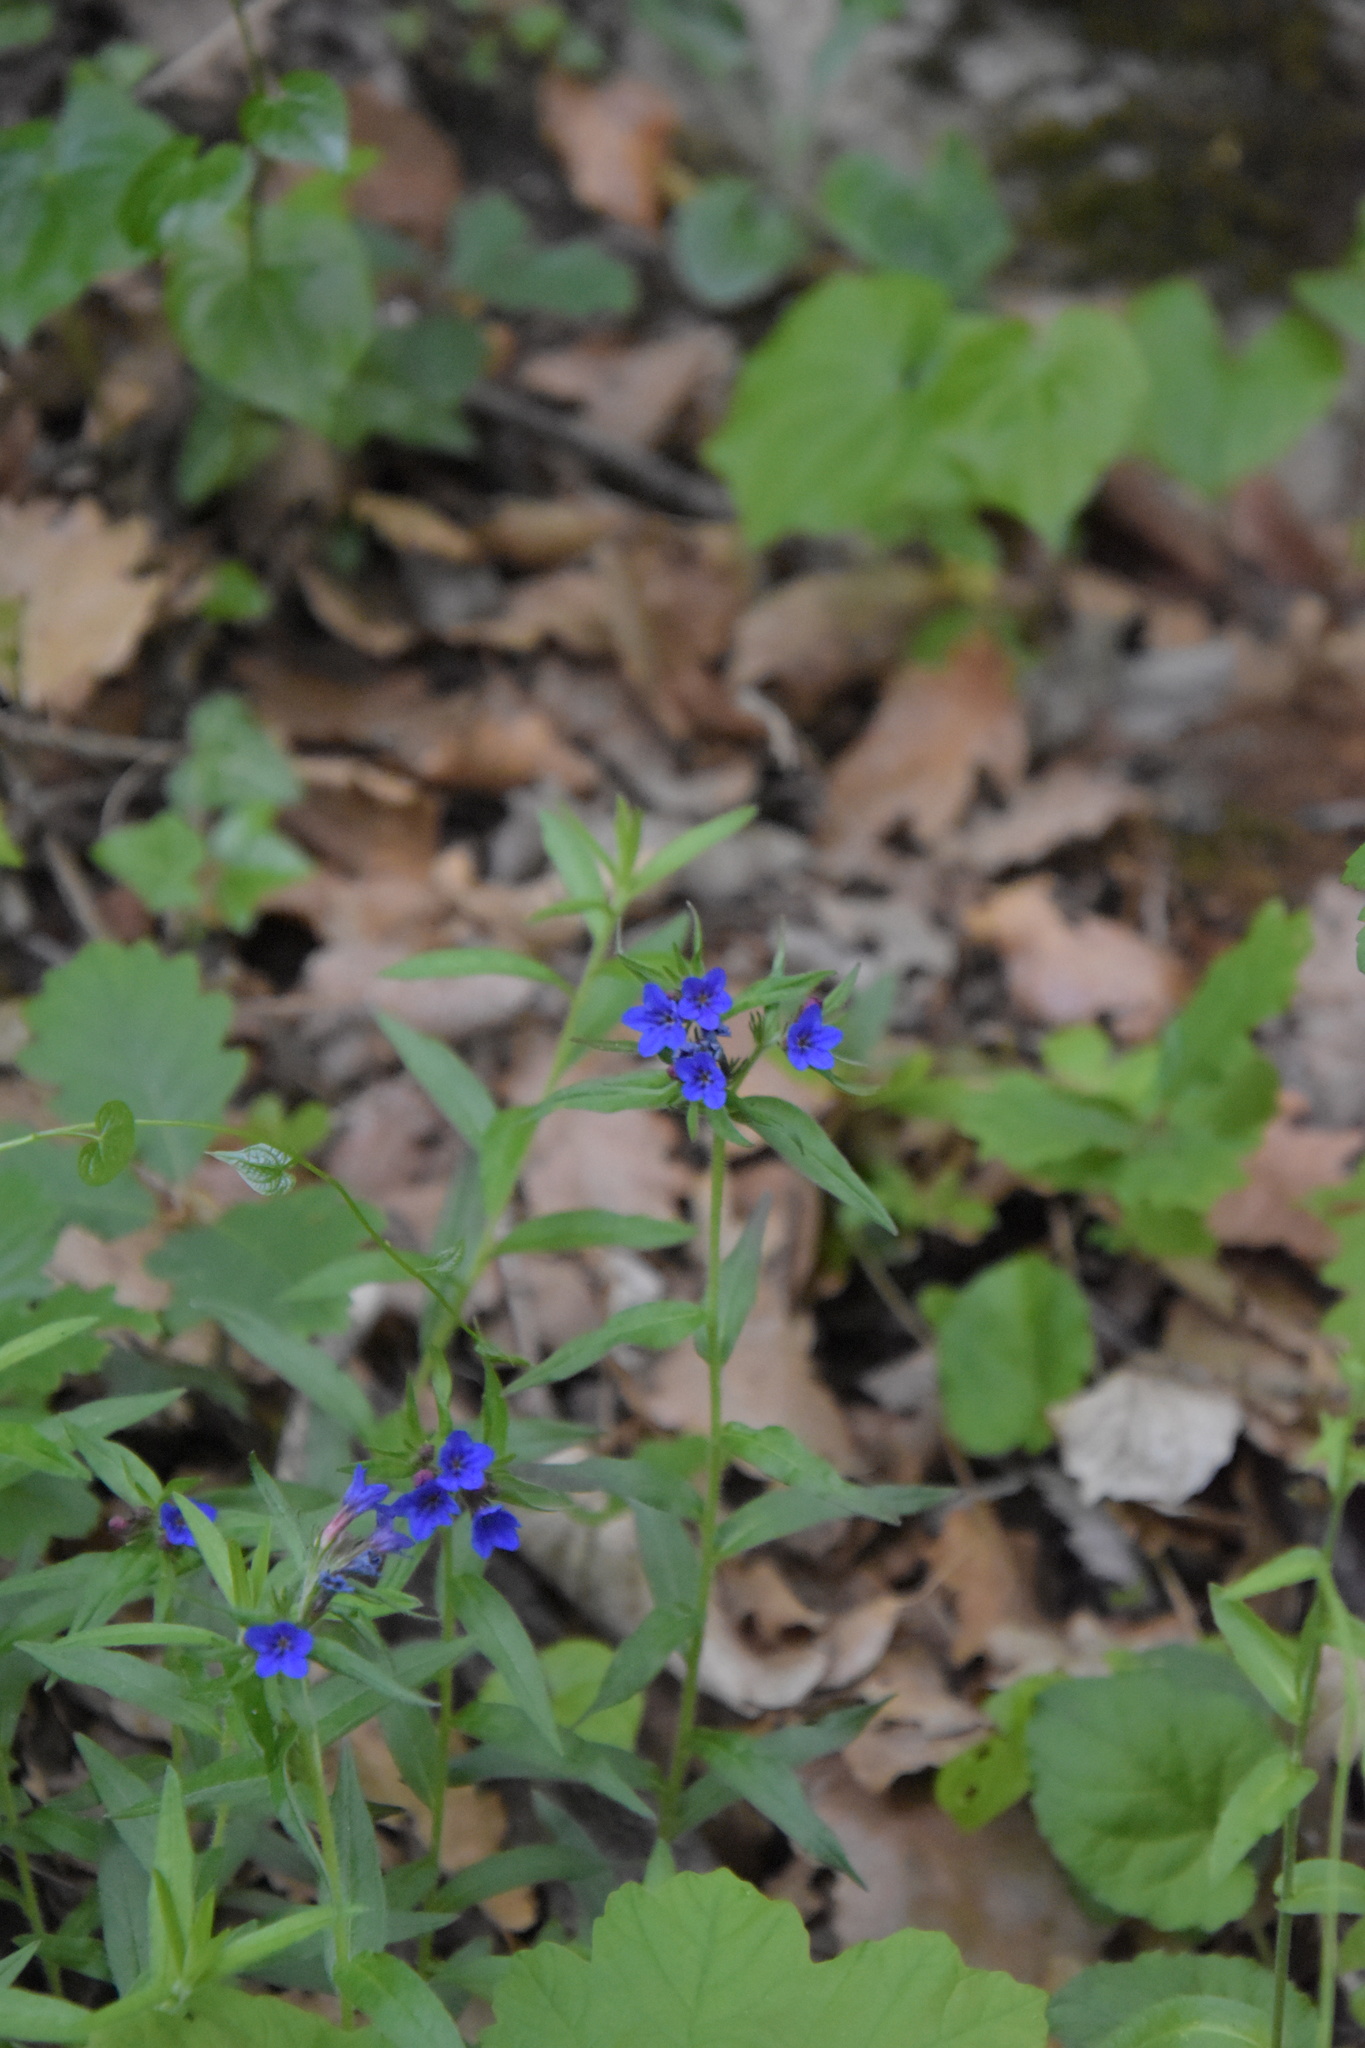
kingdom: Plantae
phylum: Tracheophyta
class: Magnoliopsida
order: Boraginales
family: Boraginaceae
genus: Aegonychon
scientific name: Aegonychon purpurocaeruleum
